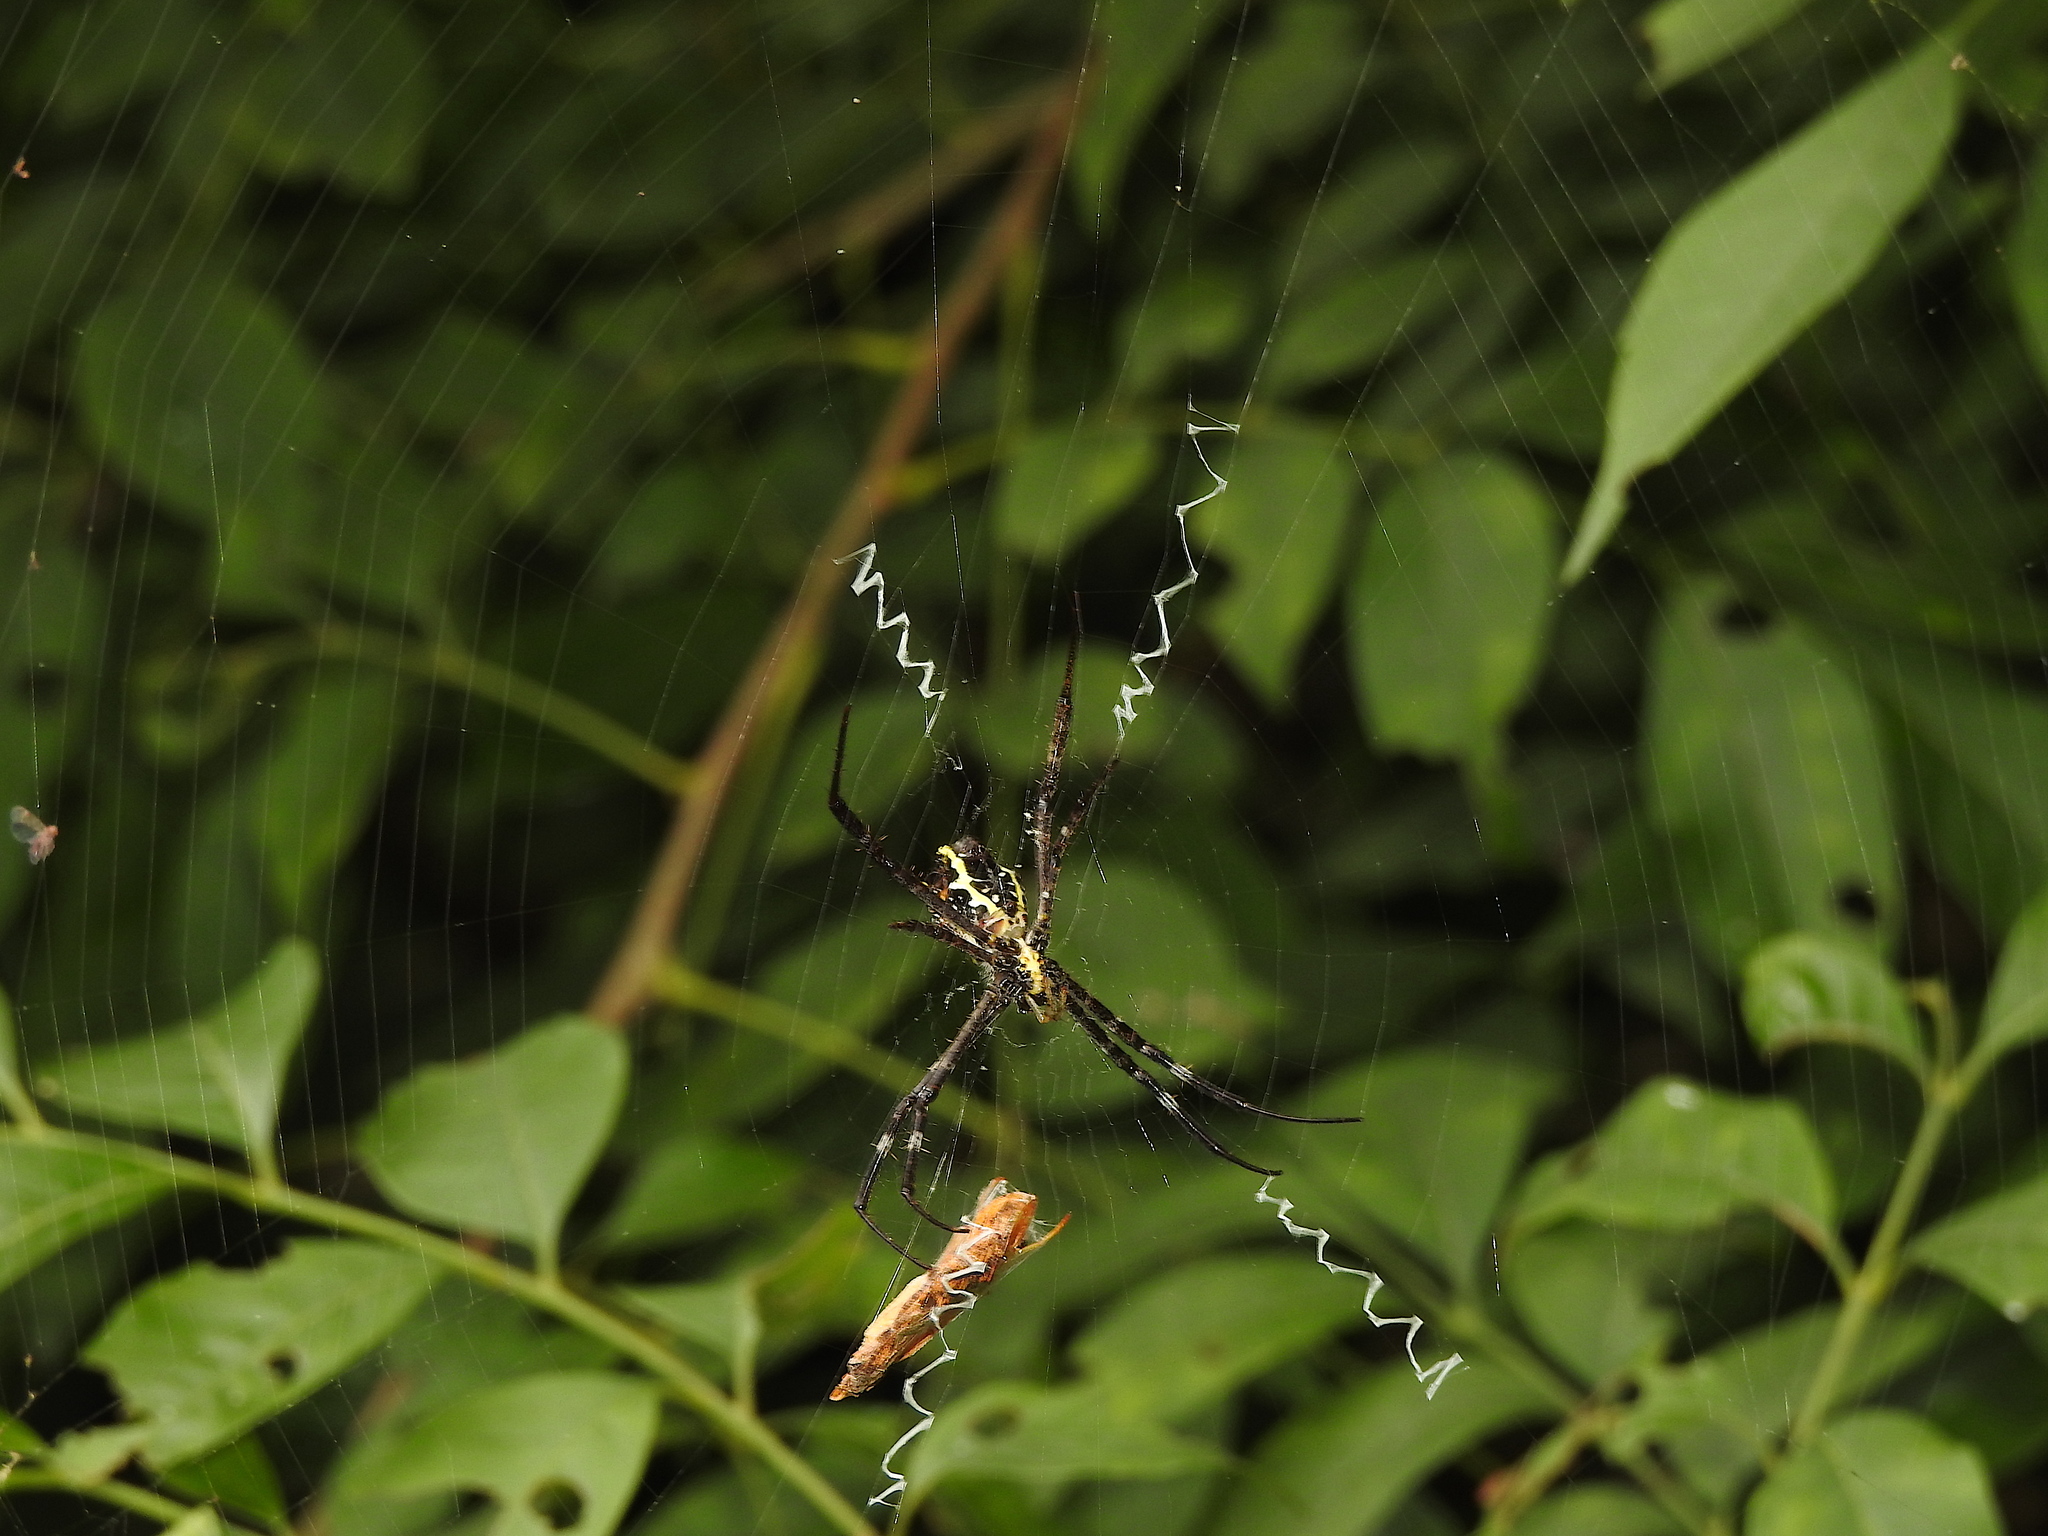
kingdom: Animalia
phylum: Arthropoda
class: Arachnida
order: Araneae
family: Araneidae
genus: Argiope
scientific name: Argiope taprobanica
